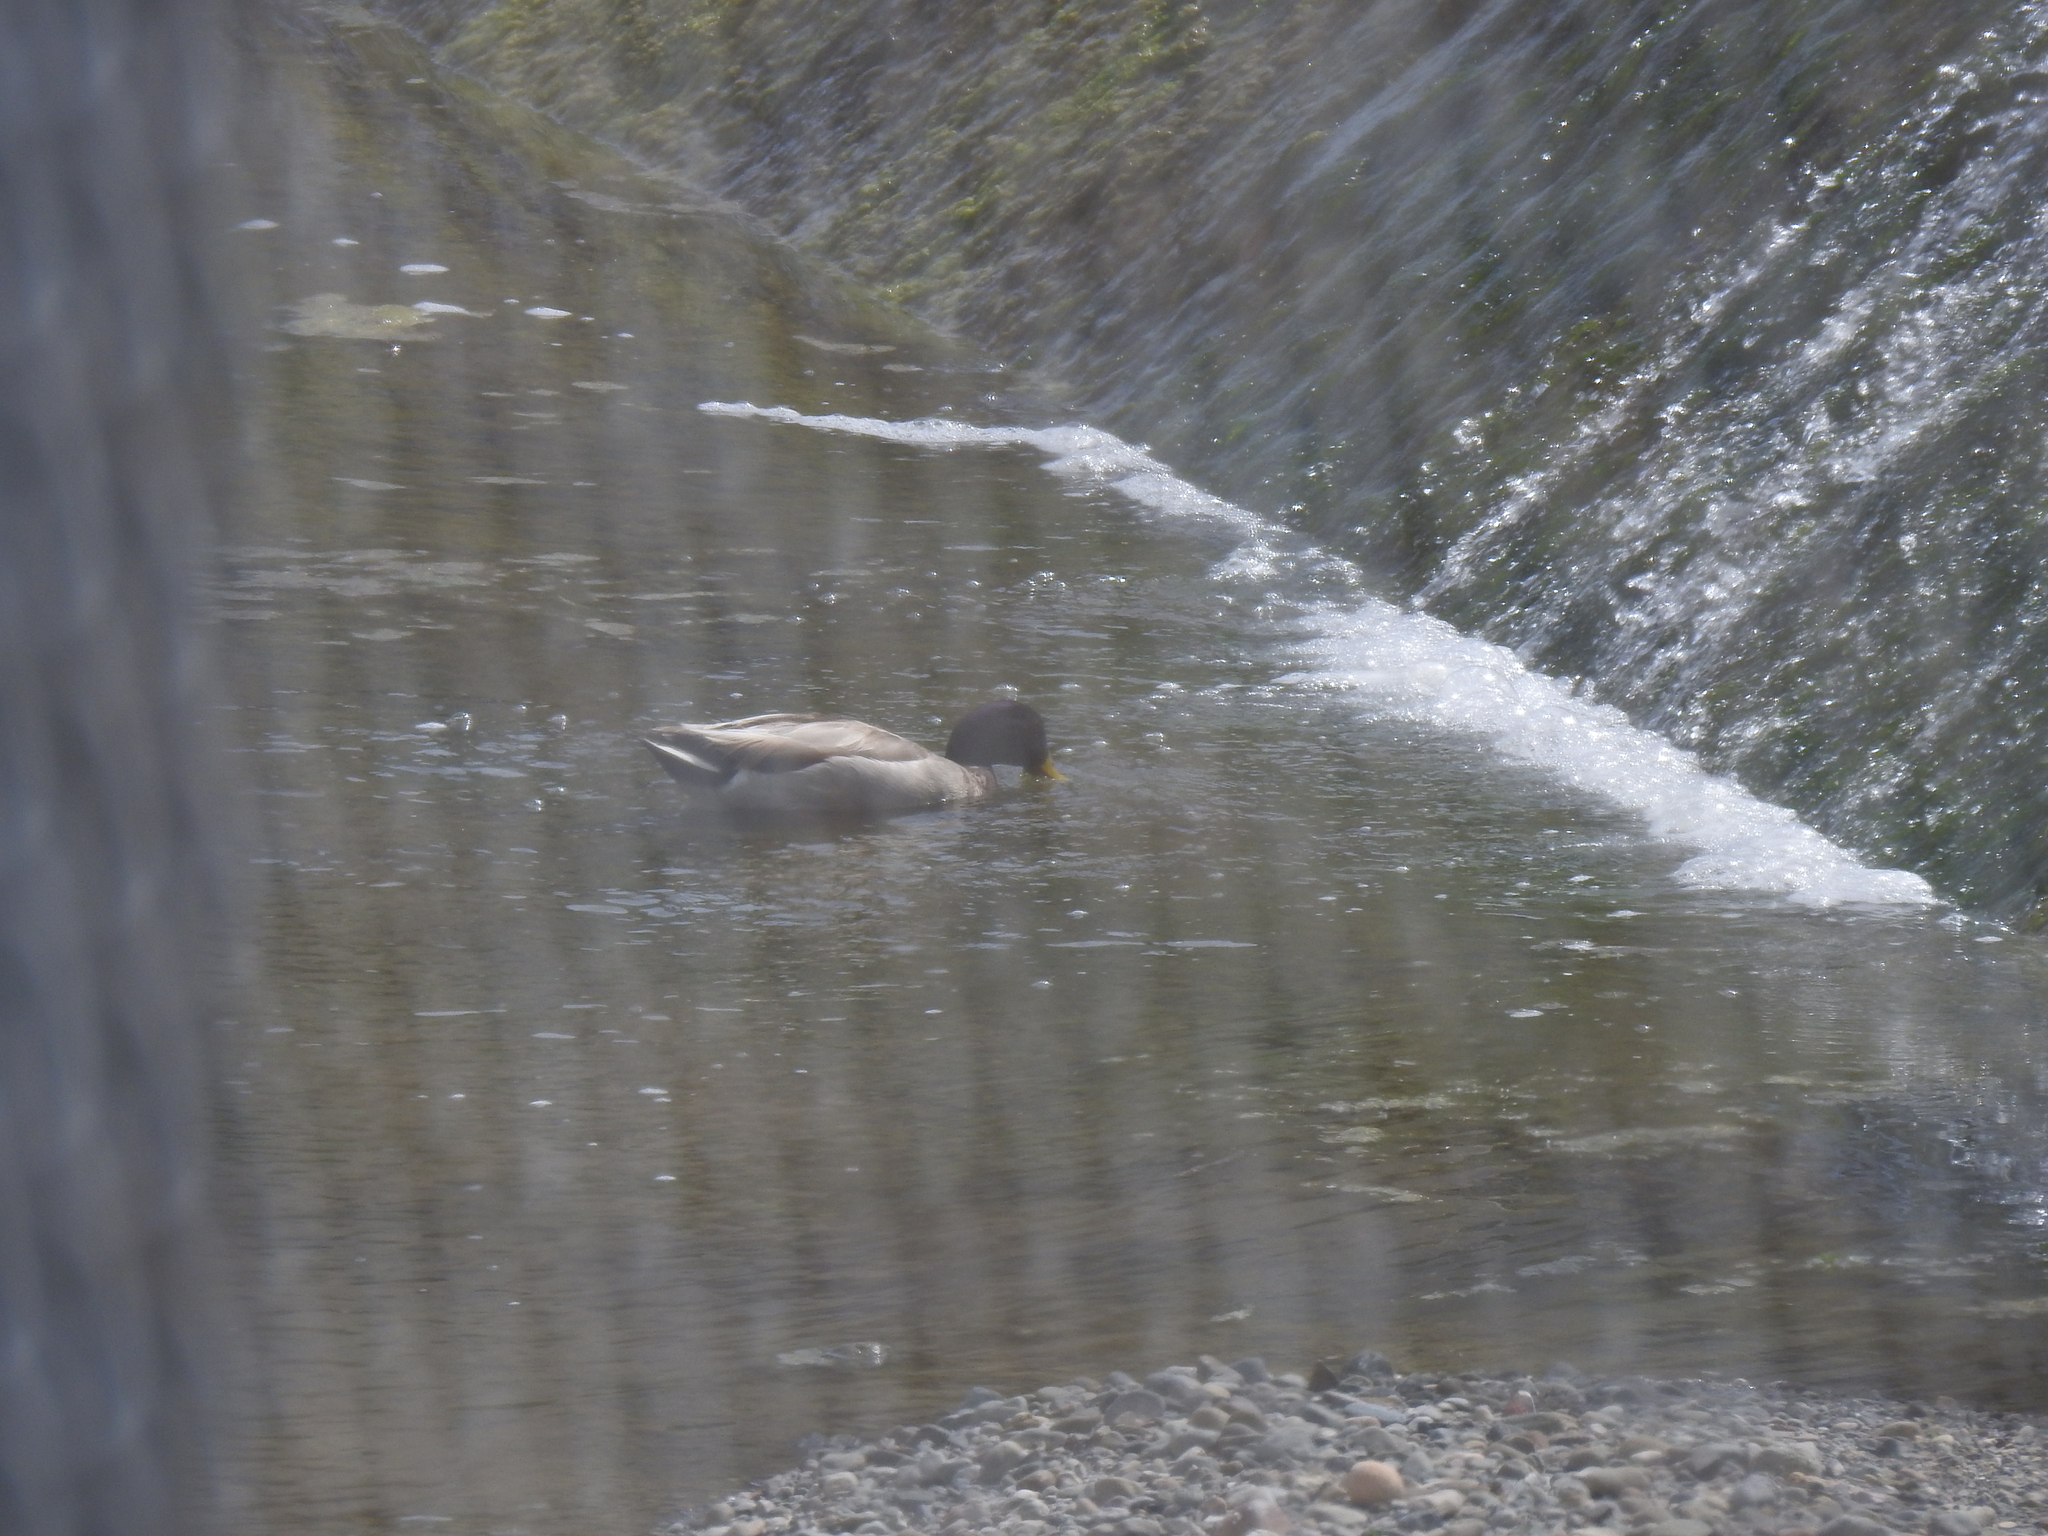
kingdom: Animalia
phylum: Chordata
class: Aves
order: Anseriformes
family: Anatidae
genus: Anas
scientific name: Anas platyrhynchos
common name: Mallard
